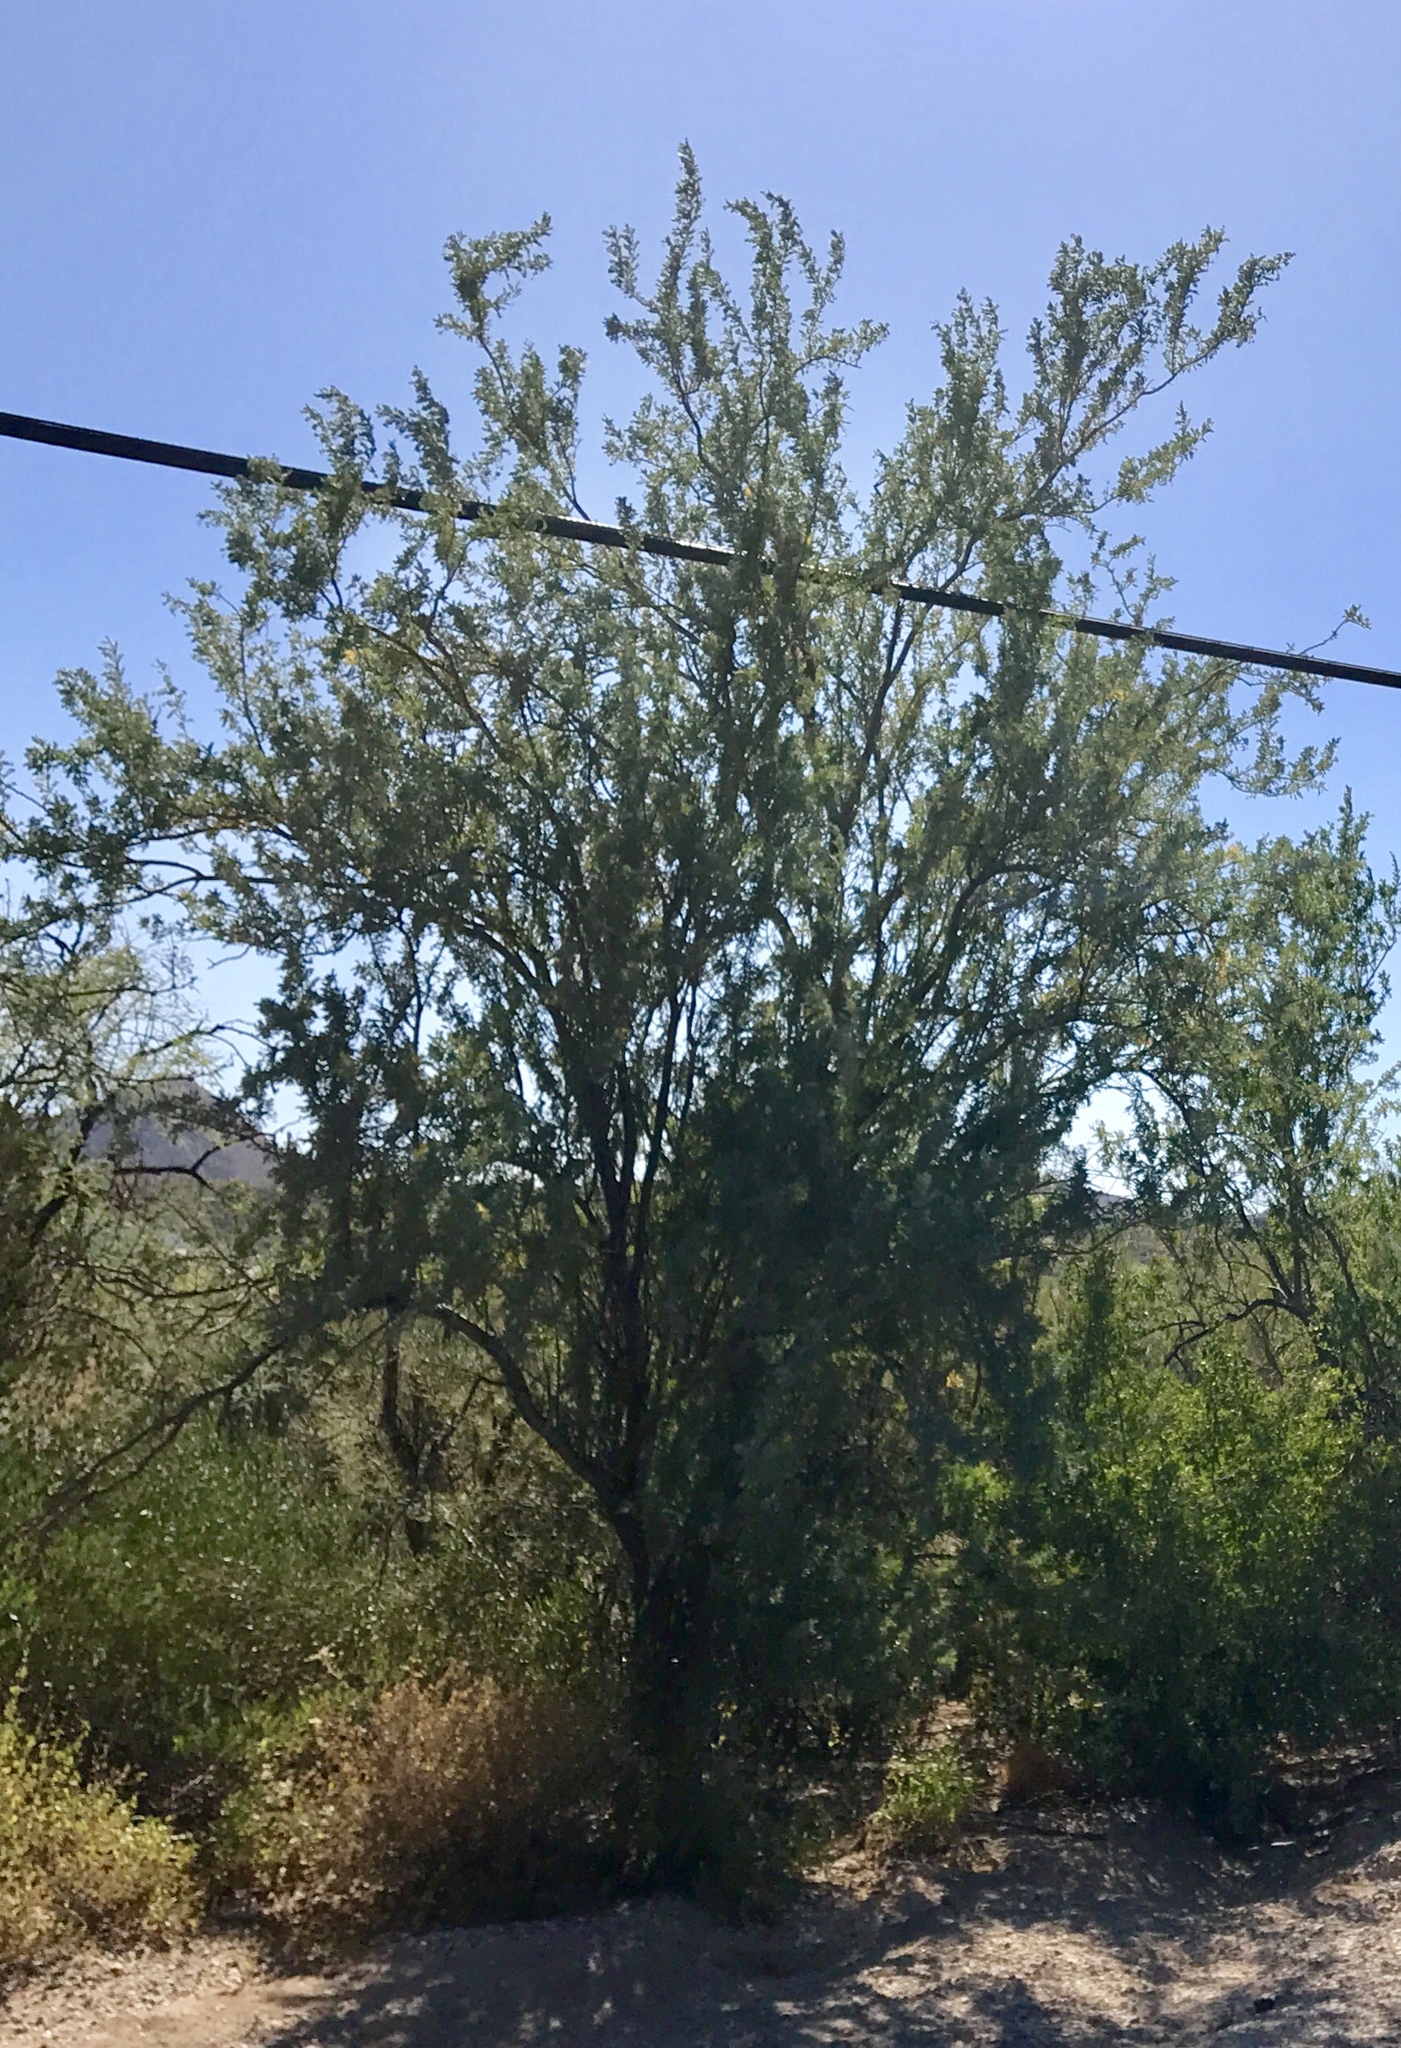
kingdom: Plantae
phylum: Tracheophyta
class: Magnoliopsida
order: Fabales
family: Fabaceae
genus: Olneya
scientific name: Olneya tesota
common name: Desert ironwood
